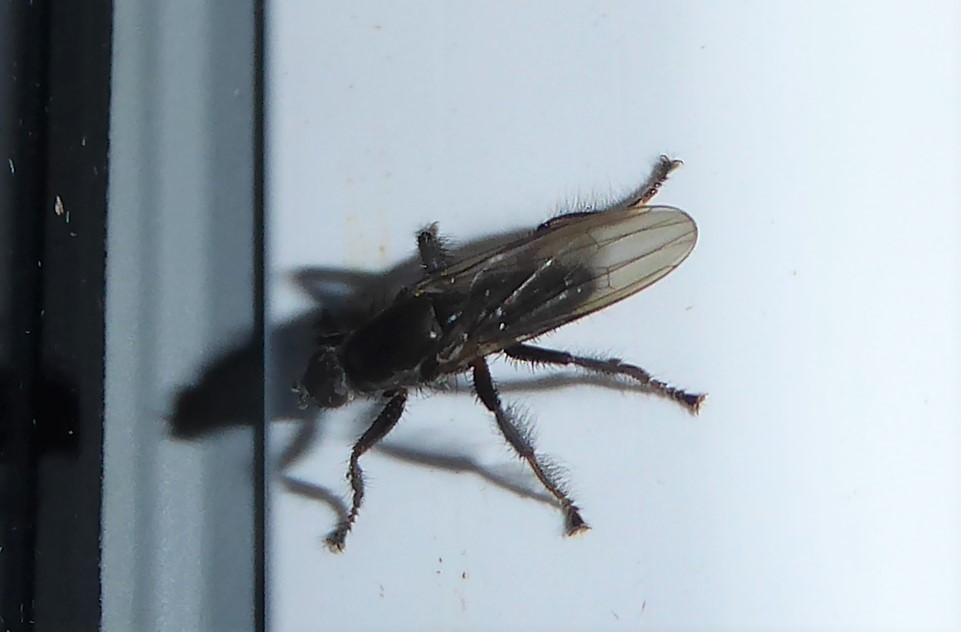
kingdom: Animalia
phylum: Arthropoda
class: Insecta
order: Diptera
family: Coelopidae
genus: Chaetocoelopa
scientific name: Chaetocoelopa littoralis
